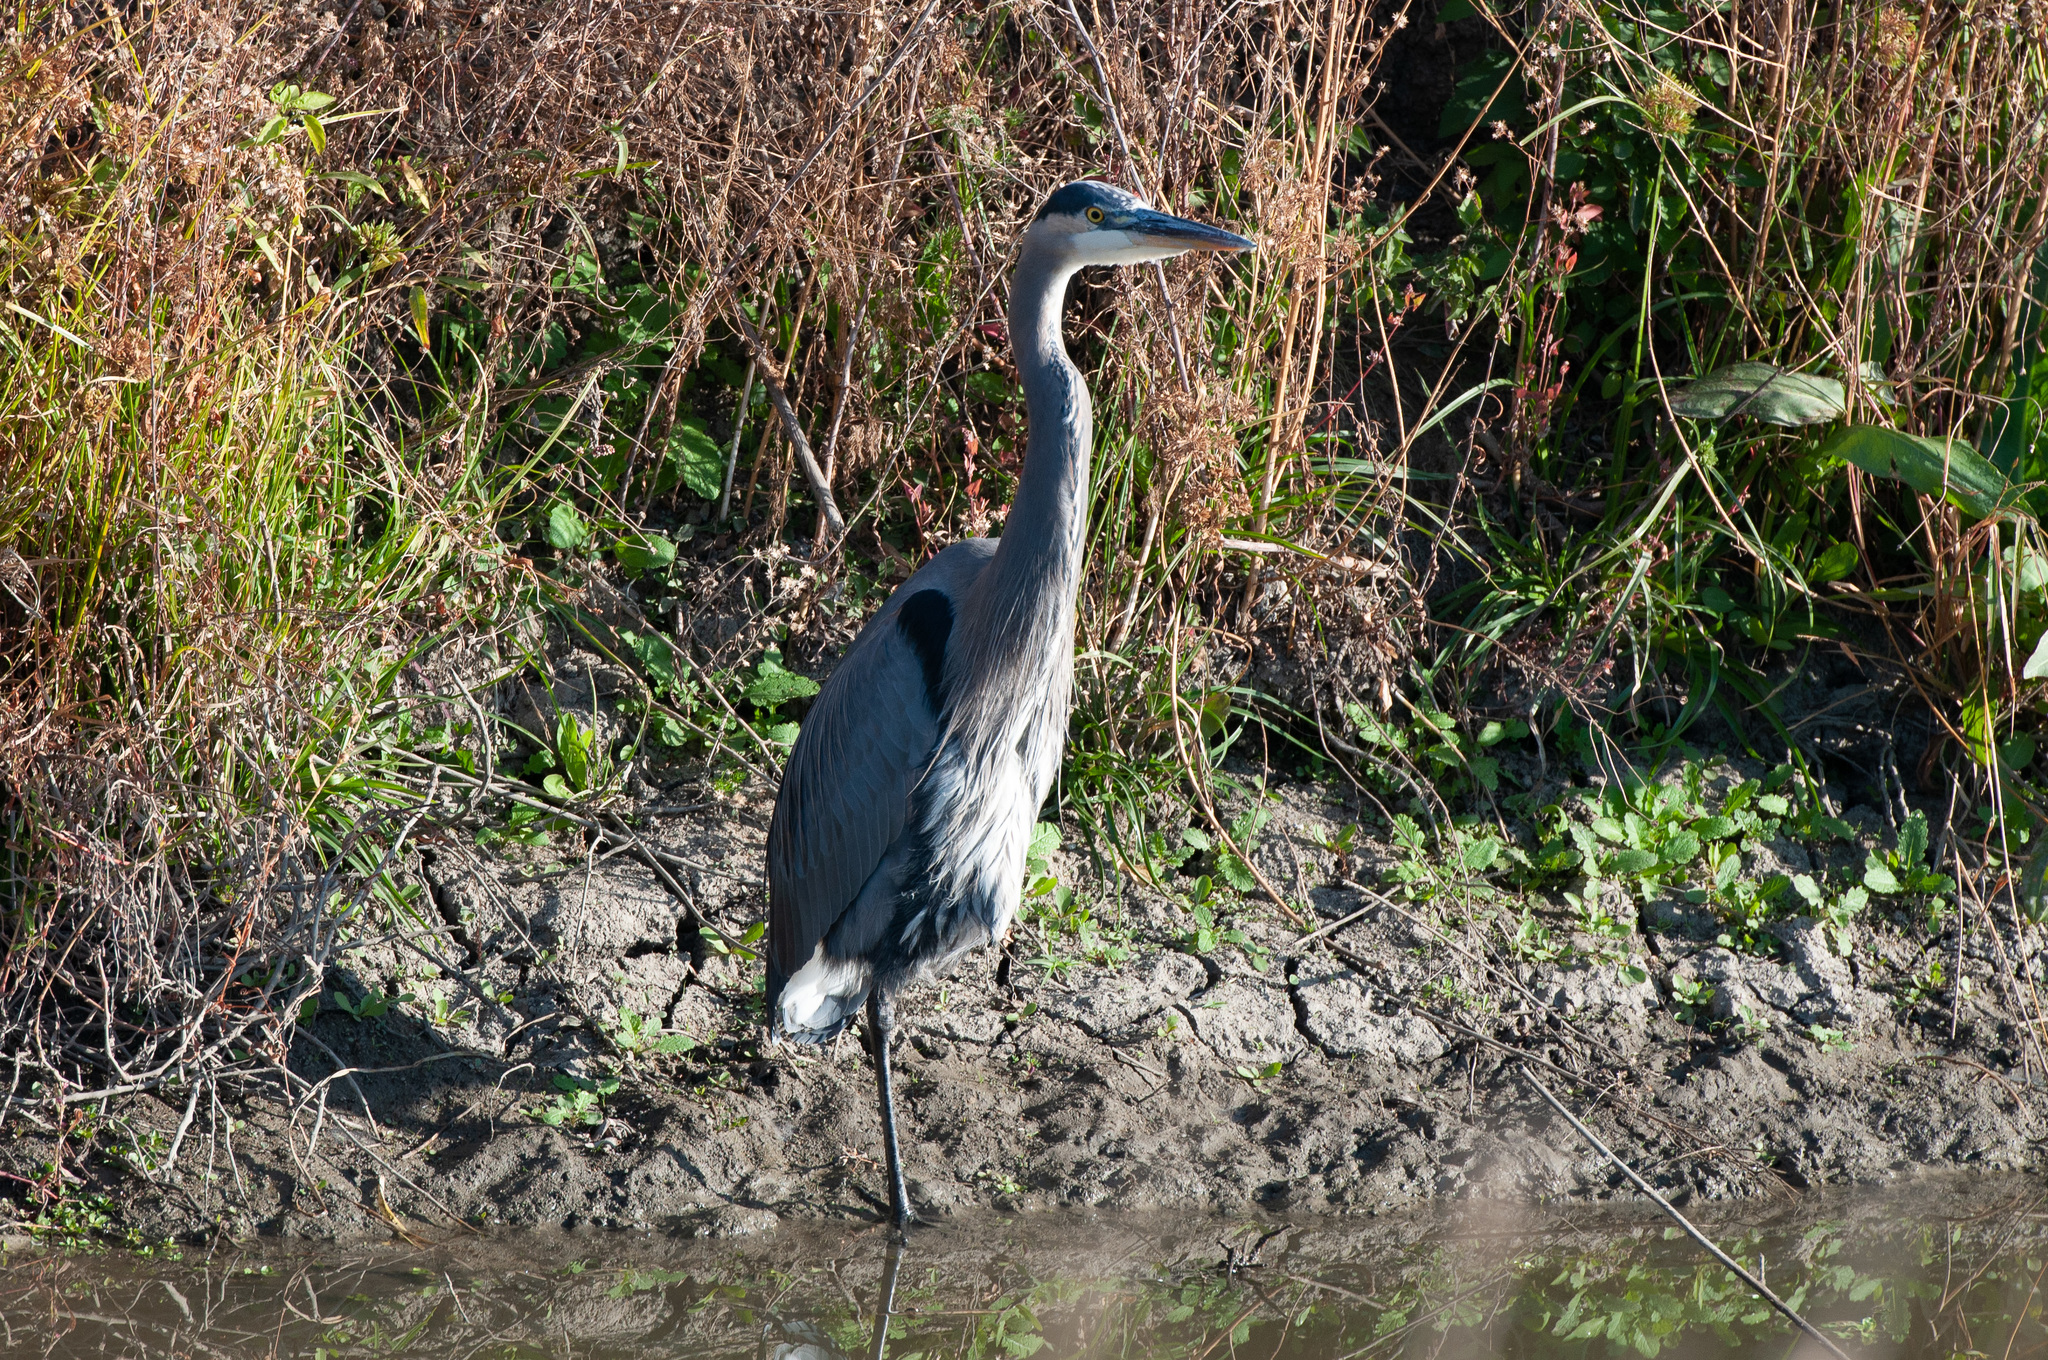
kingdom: Animalia
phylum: Chordata
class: Aves
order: Pelecaniformes
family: Ardeidae
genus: Ardea
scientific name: Ardea herodias
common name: Great blue heron
